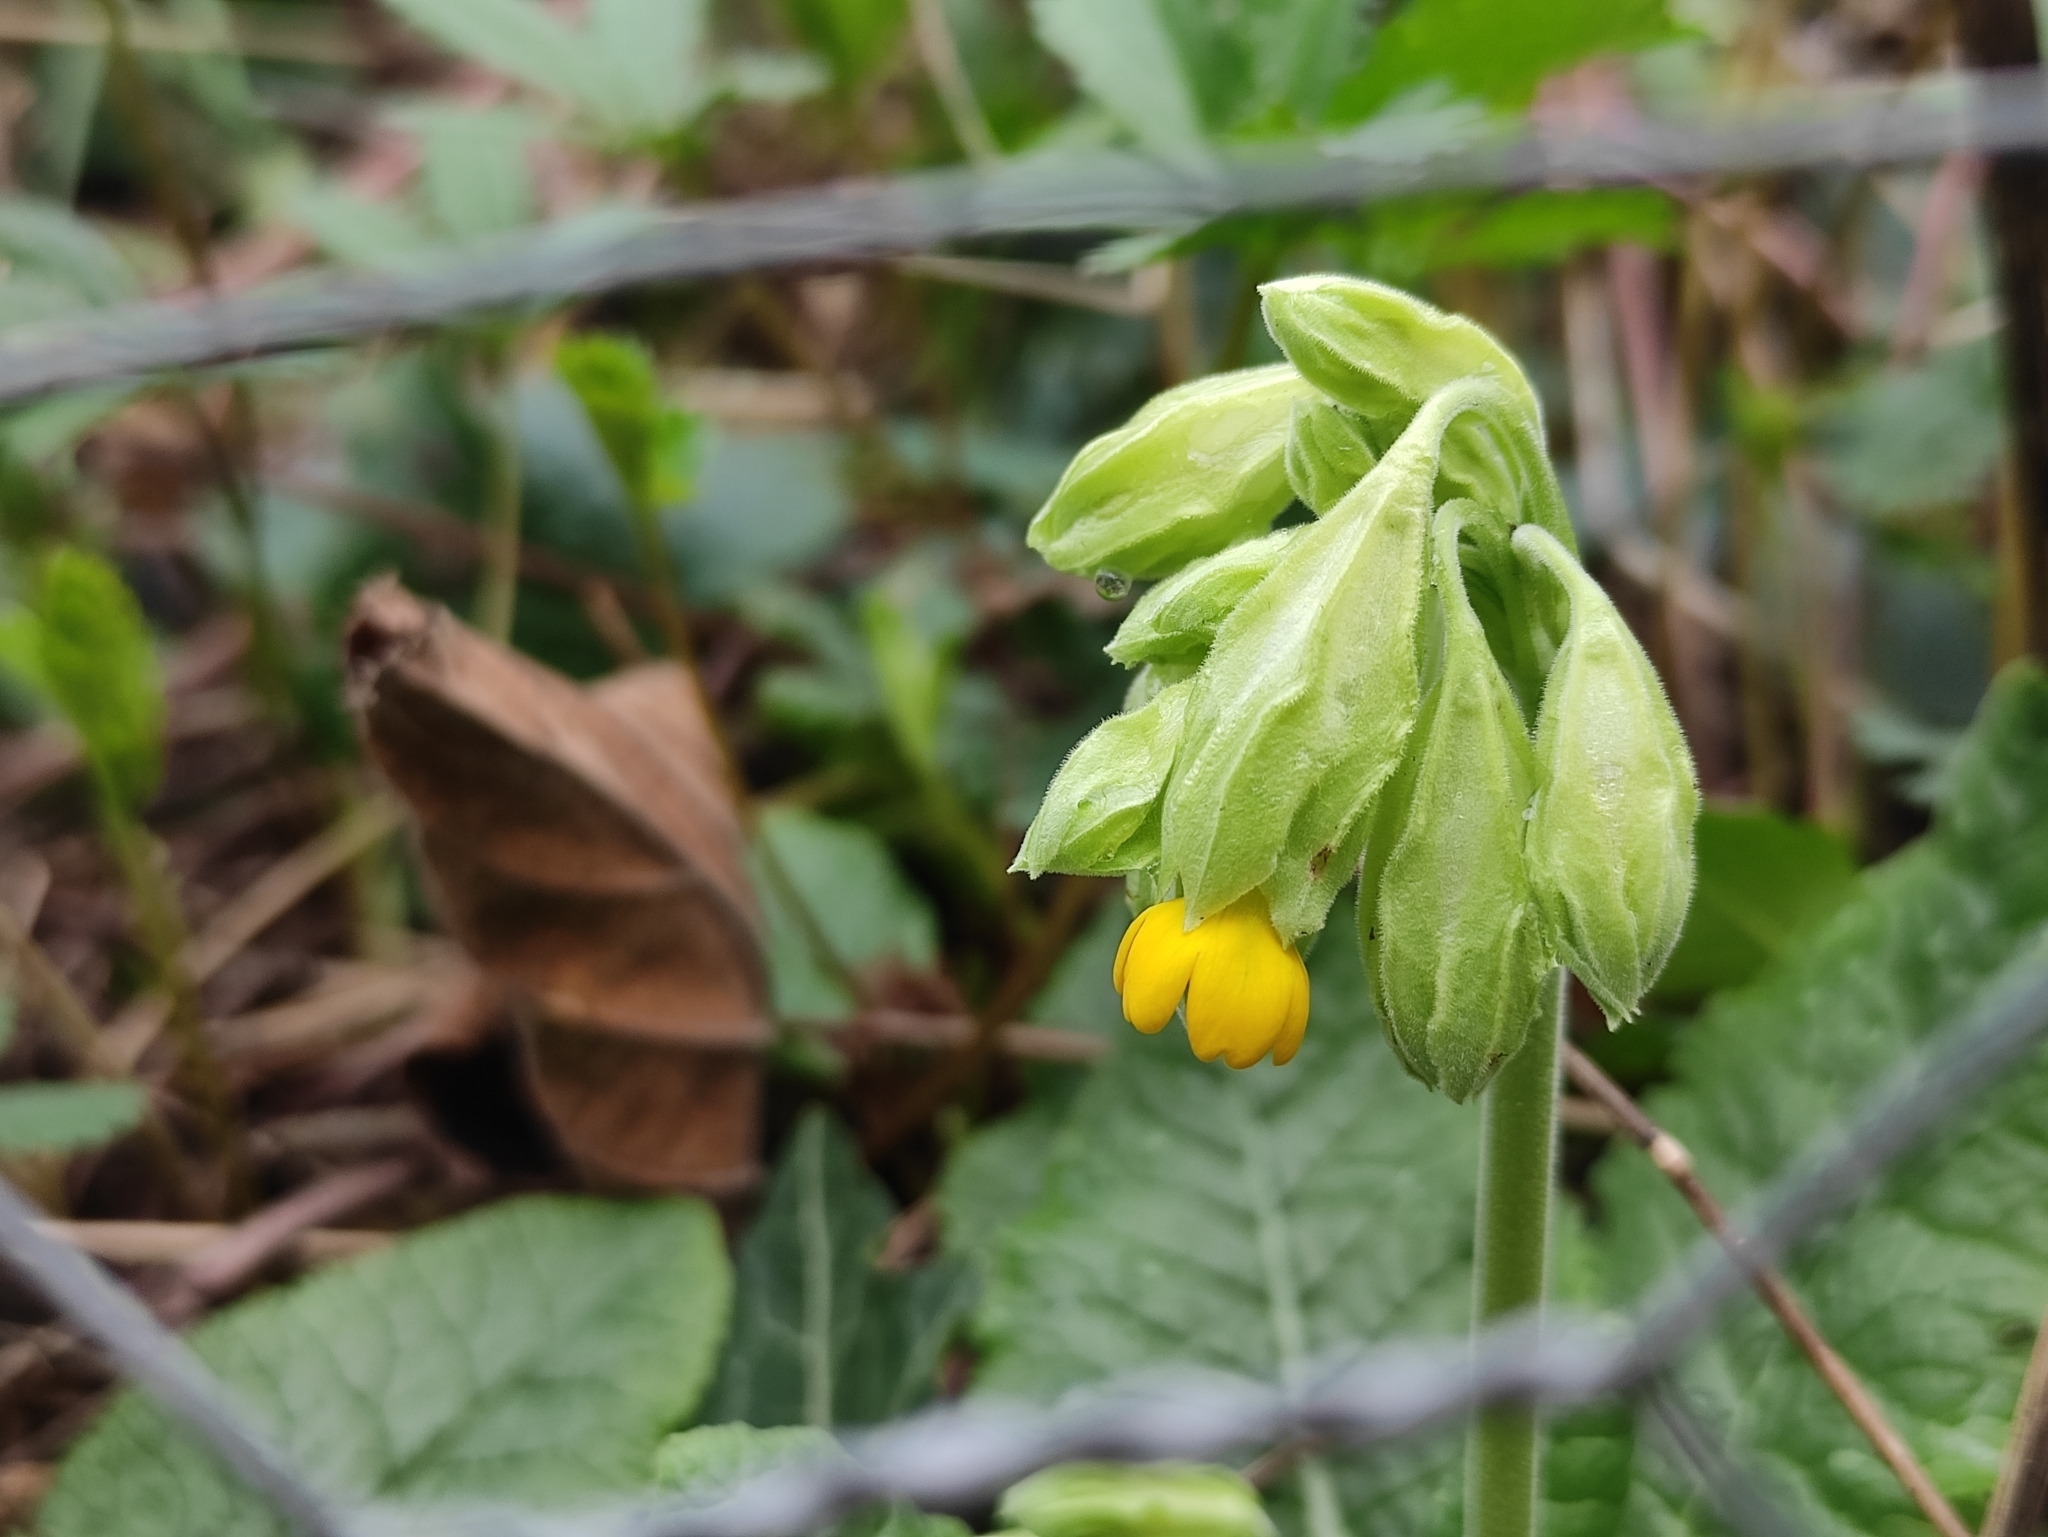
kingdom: Plantae
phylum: Tracheophyta
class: Magnoliopsida
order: Ericales
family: Primulaceae
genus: Primula
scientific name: Primula veris
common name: Cowslip
